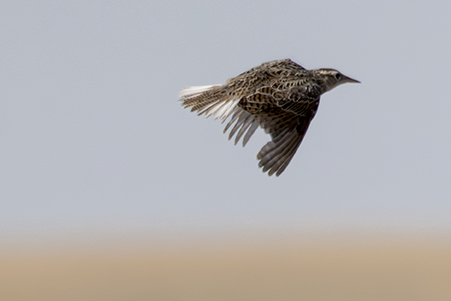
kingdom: Animalia
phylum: Chordata
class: Aves
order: Passeriformes
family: Icteridae
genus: Sturnella
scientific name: Sturnella neglecta
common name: Western meadowlark
